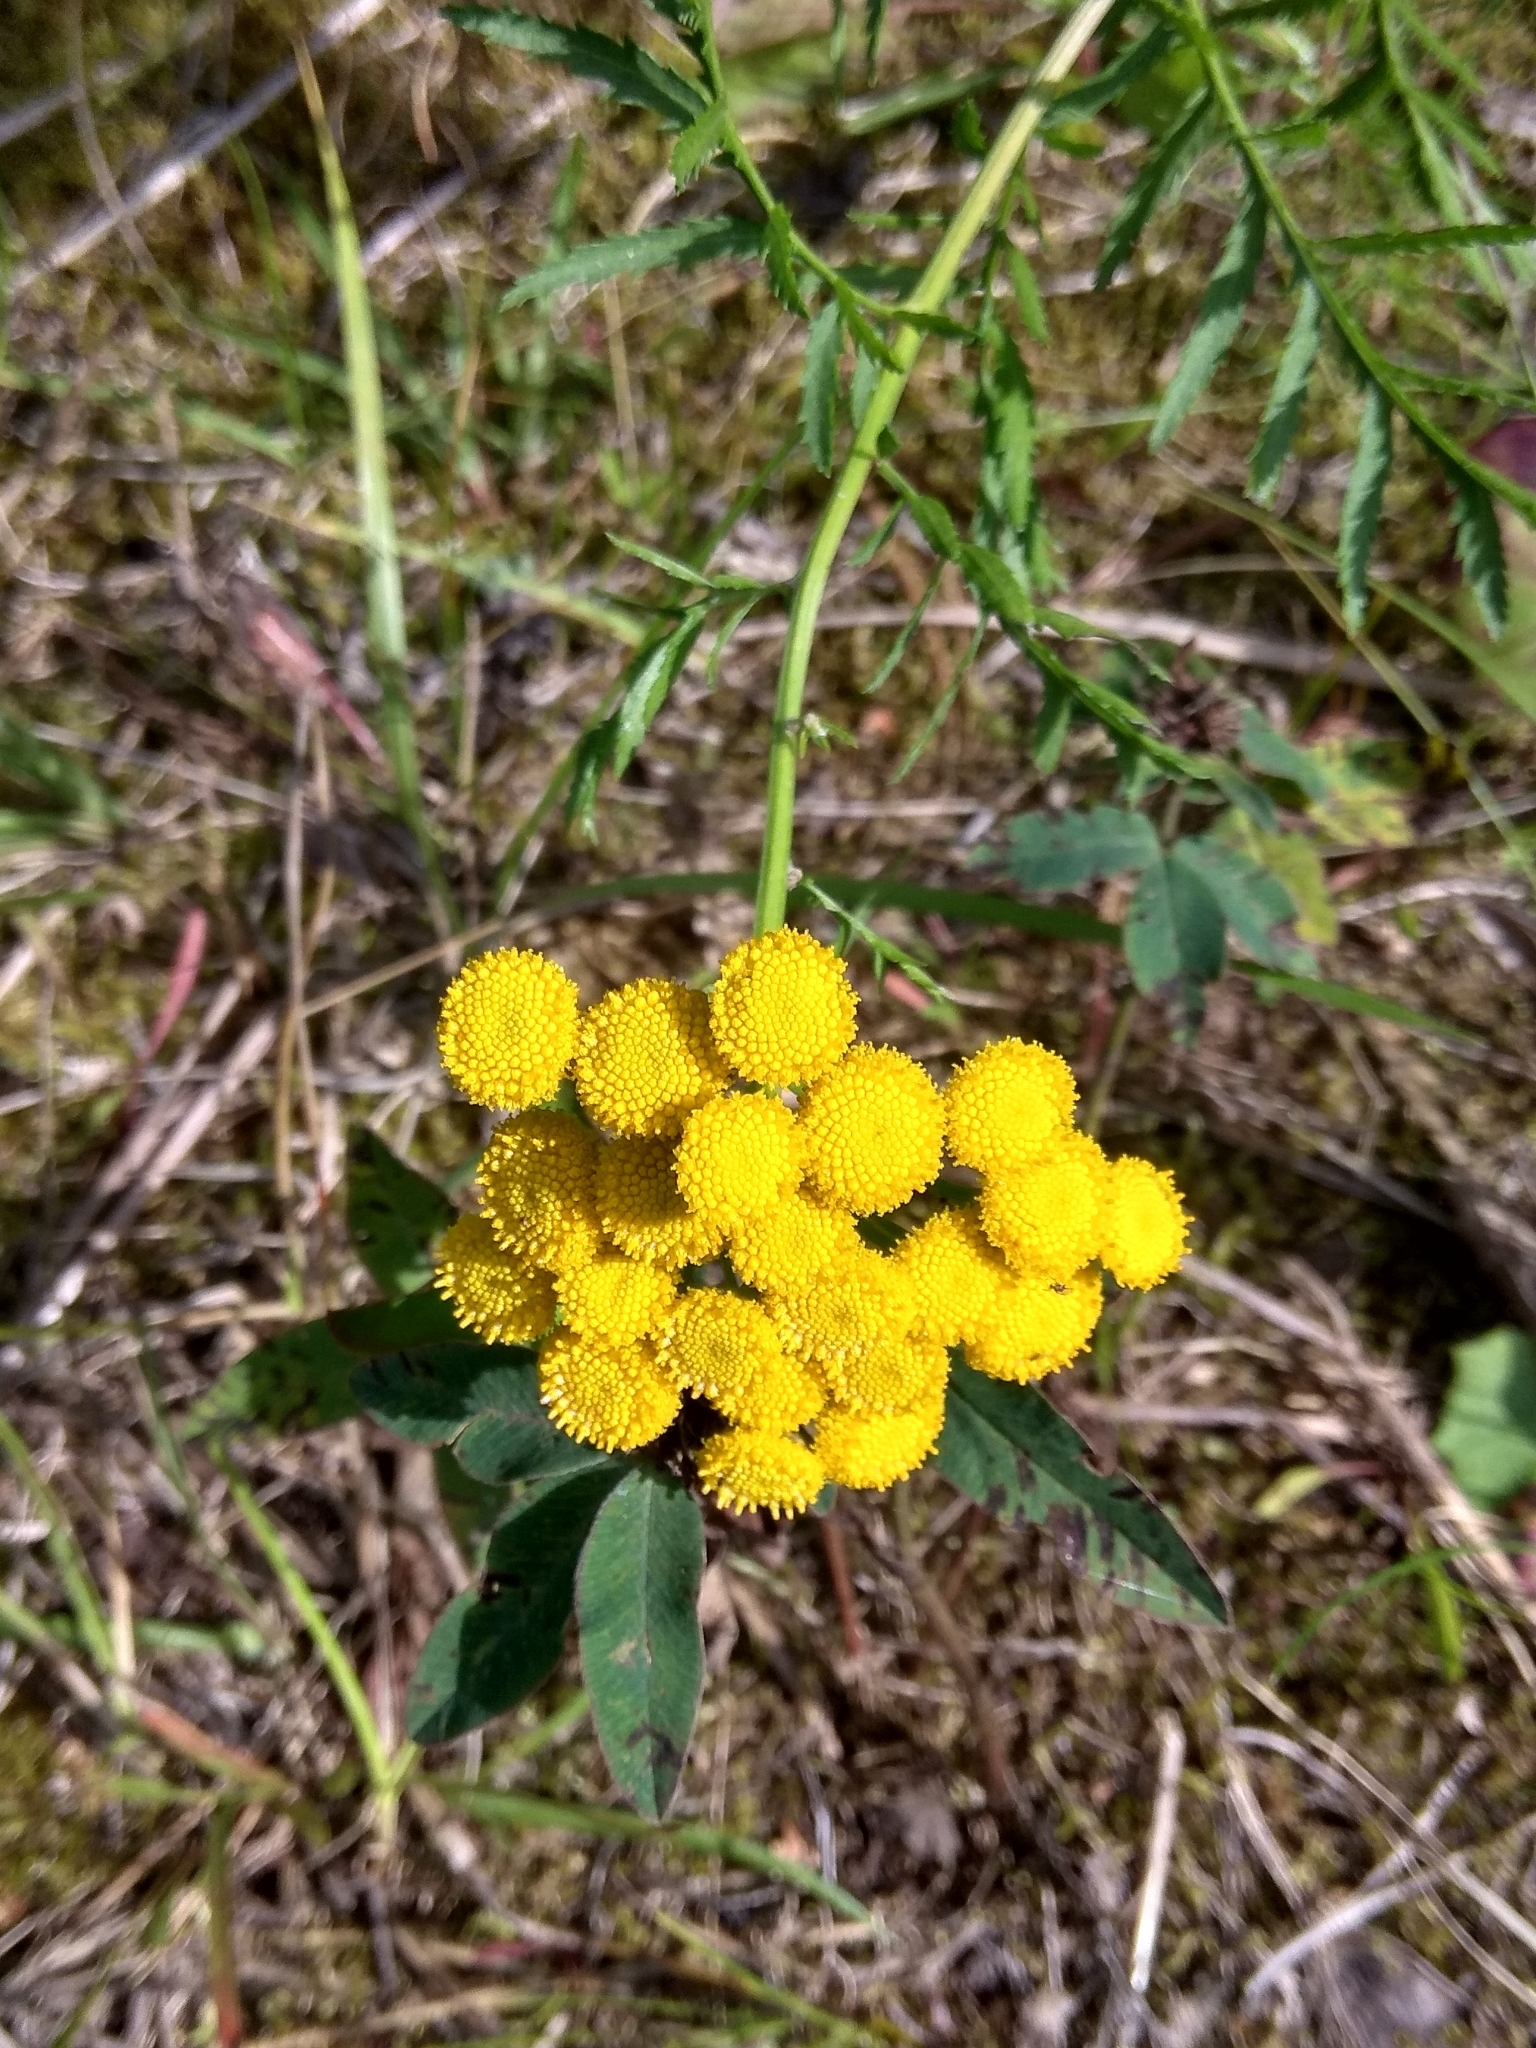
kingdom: Plantae
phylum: Tracheophyta
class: Magnoliopsida
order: Asterales
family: Asteraceae
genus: Tanacetum
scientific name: Tanacetum vulgare
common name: Common tansy
